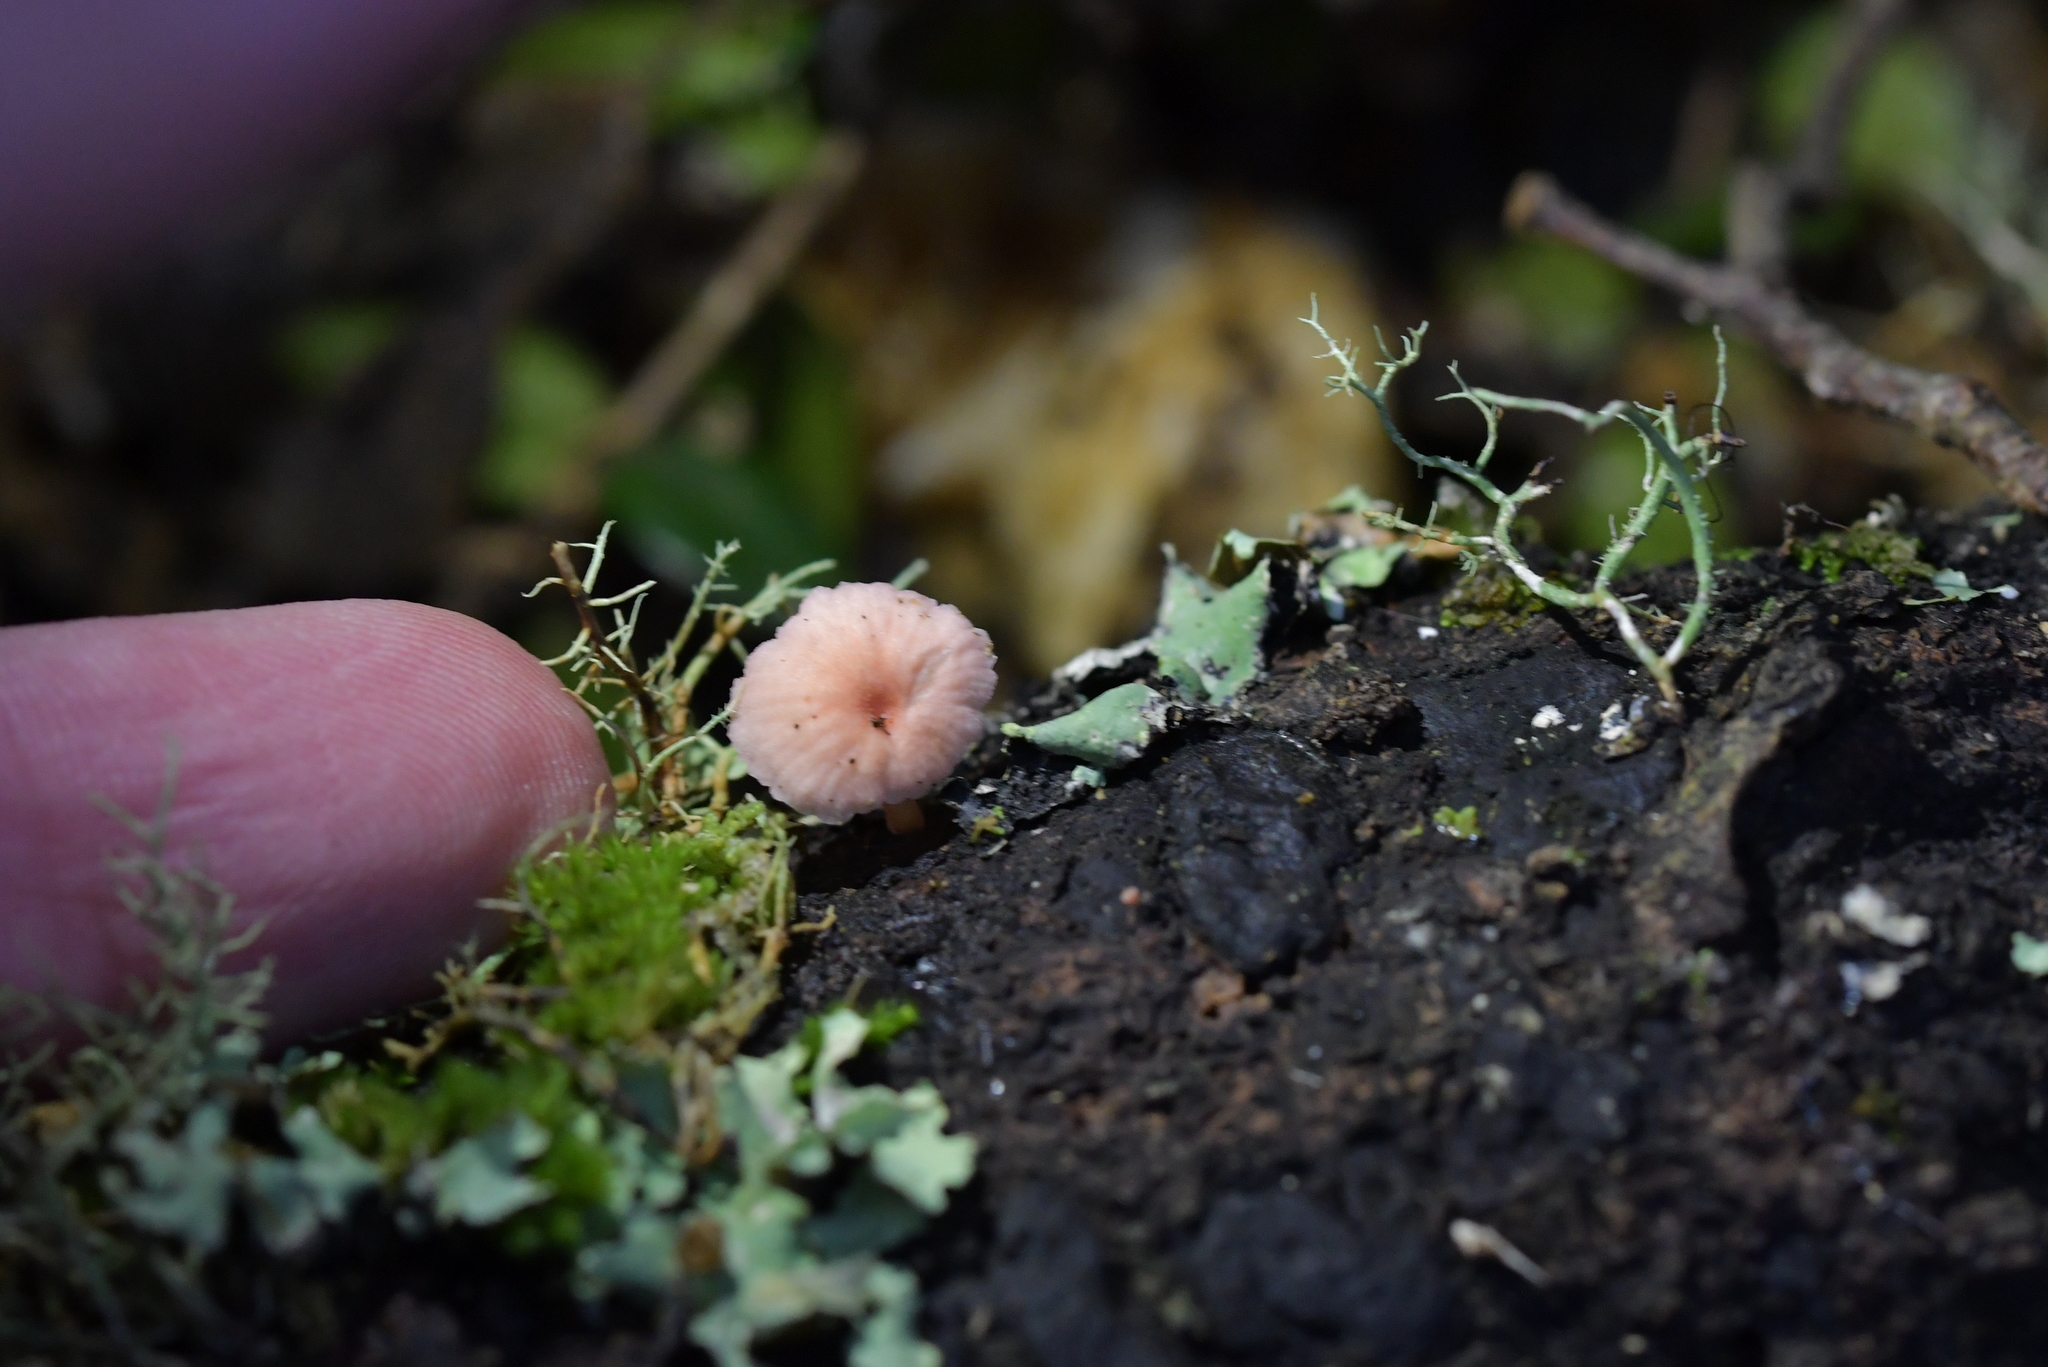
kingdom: Fungi
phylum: Basidiomycota
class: Agaricomycetes
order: Agaricales
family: Mycenaceae
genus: Mycena
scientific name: Mycena roseoflava
